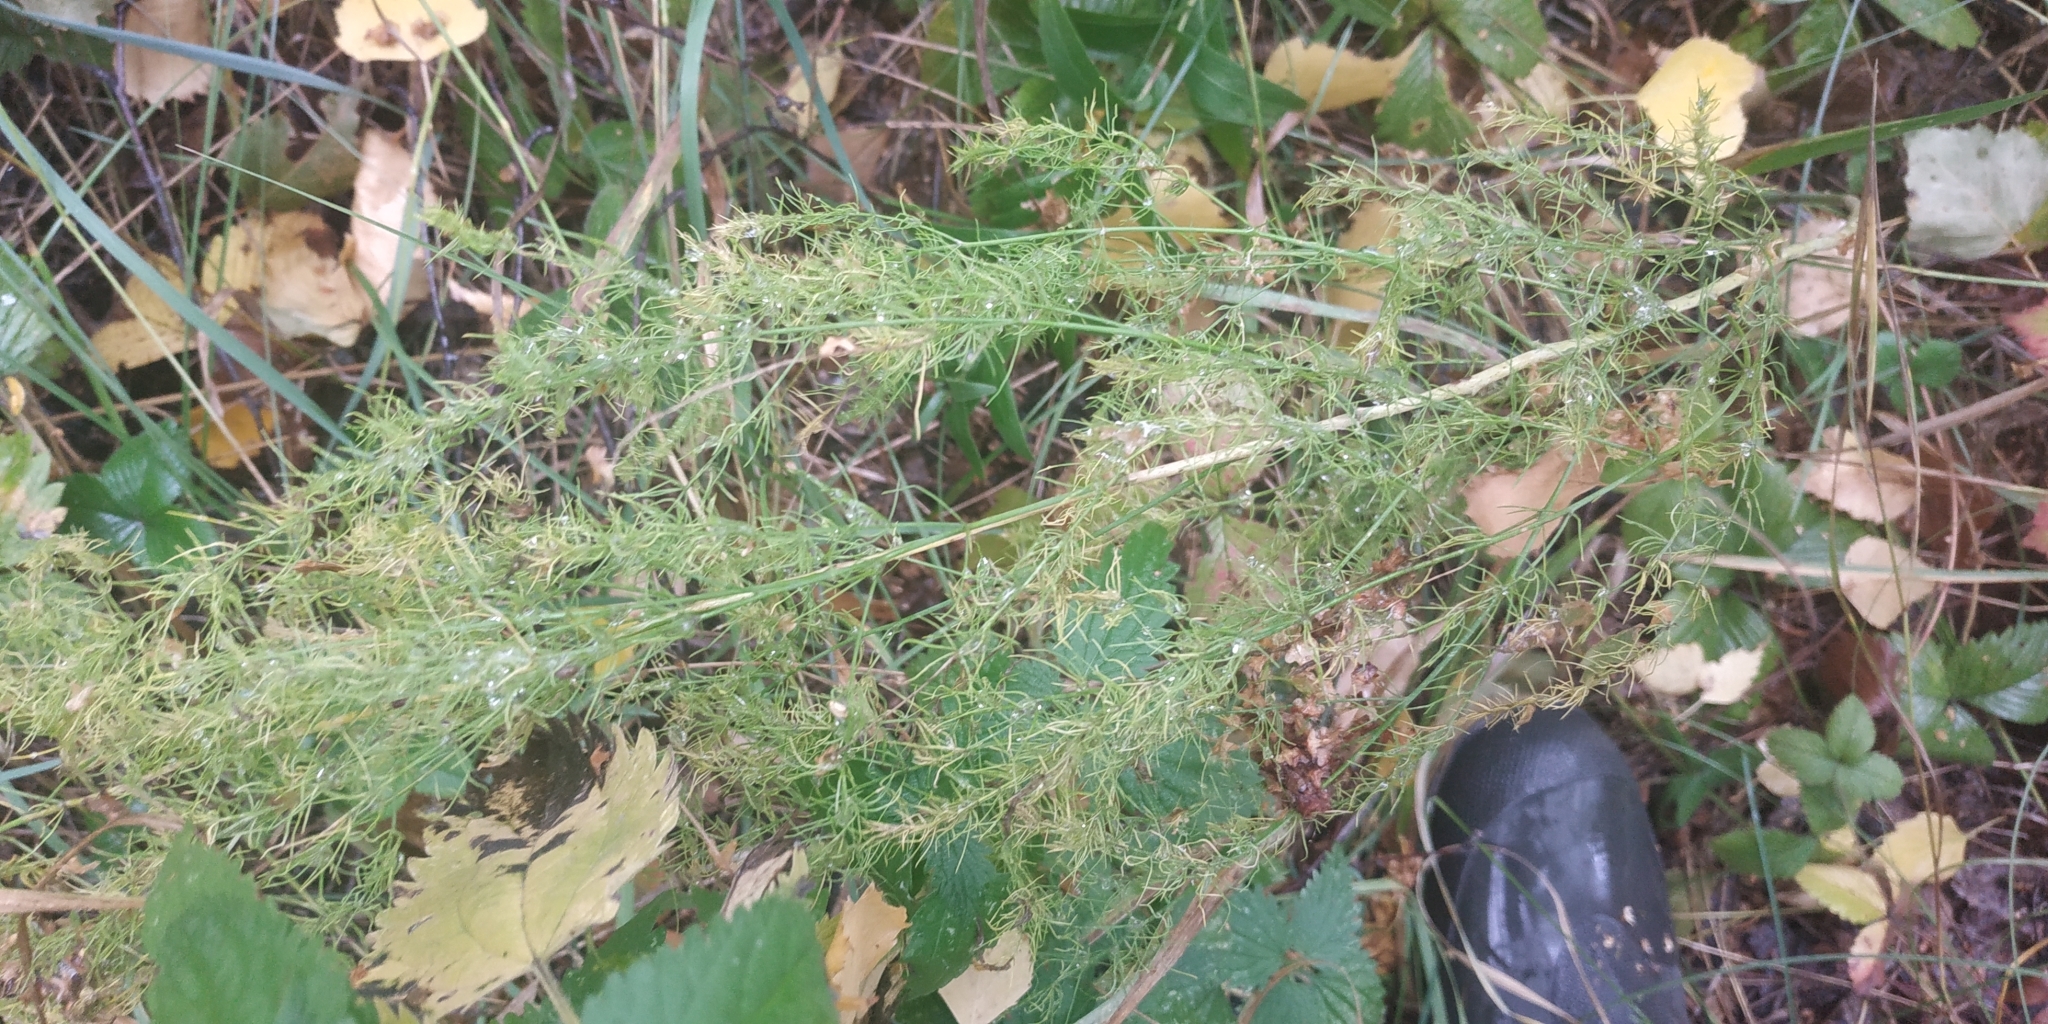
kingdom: Plantae
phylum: Tracheophyta
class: Liliopsida
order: Asparagales
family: Asparagaceae
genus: Asparagus
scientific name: Asparagus officinalis
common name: Garden asparagus
